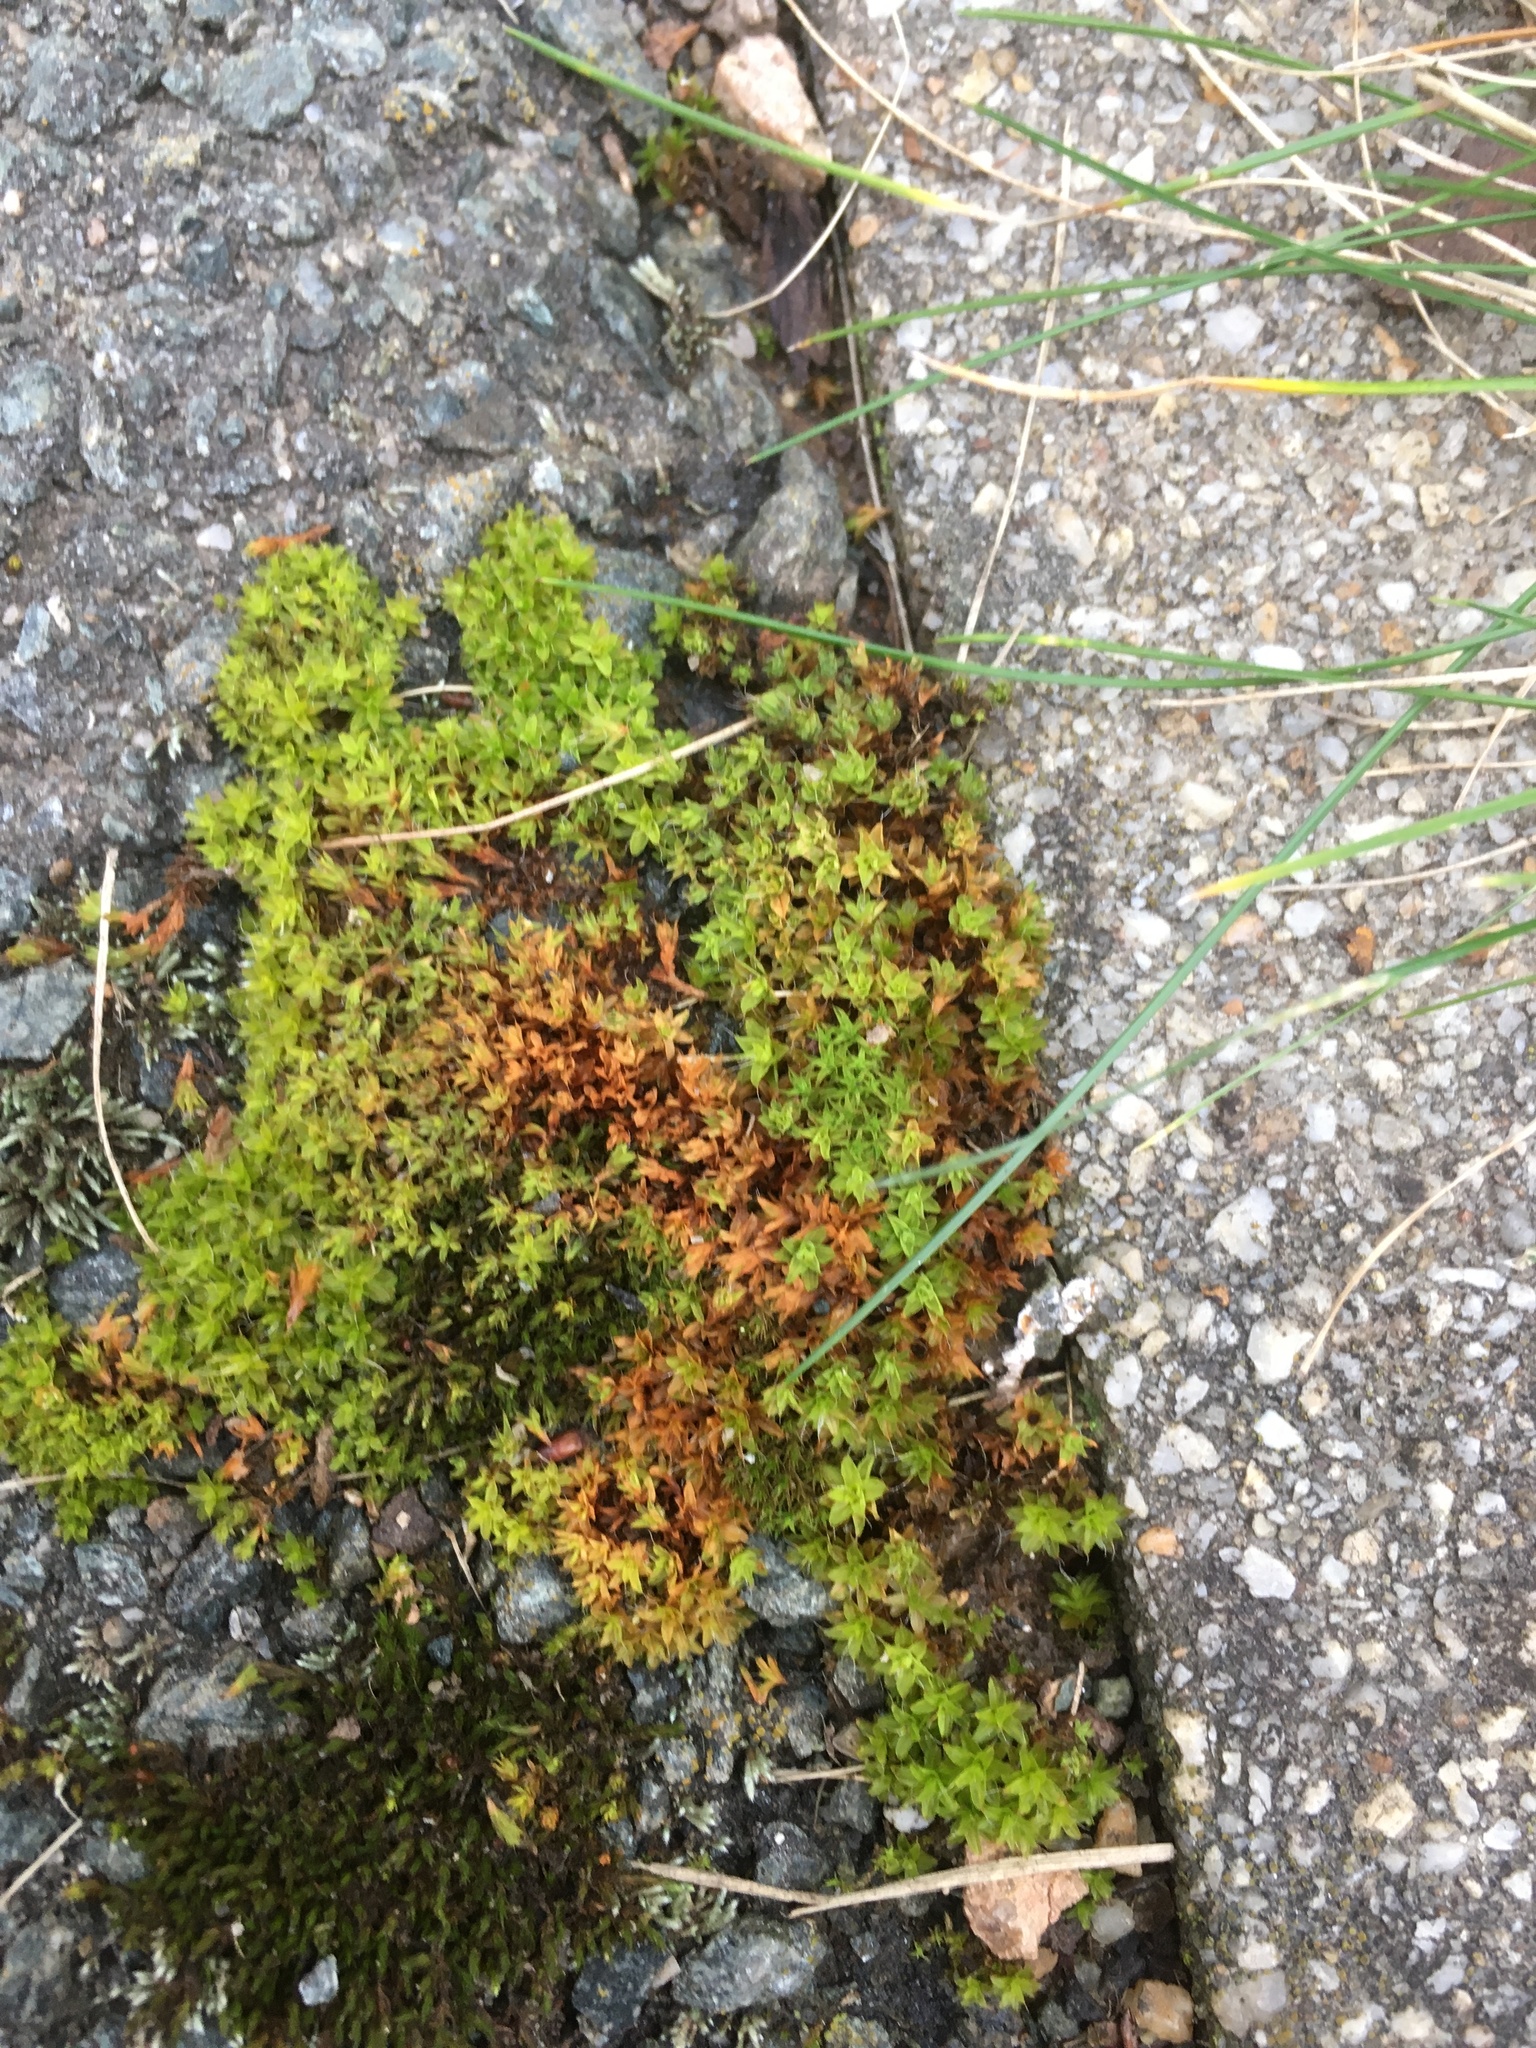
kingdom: Plantae
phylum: Bryophyta
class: Bryopsida
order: Pottiales
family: Pottiaceae
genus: Syntrichia
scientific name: Syntrichia ruralis
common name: Sidewalk screw moss
